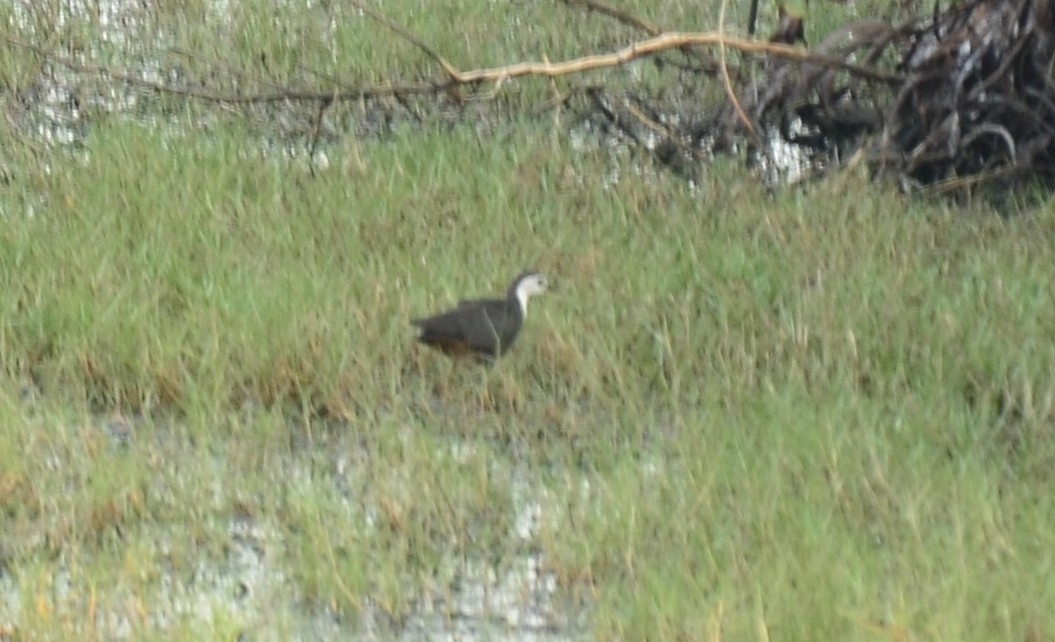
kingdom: Animalia
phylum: Chordata
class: Aves
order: Gruiformes
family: Rallidae
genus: Amaurornis
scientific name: Amaurornis phoenicurus
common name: White-breasted waterhen
